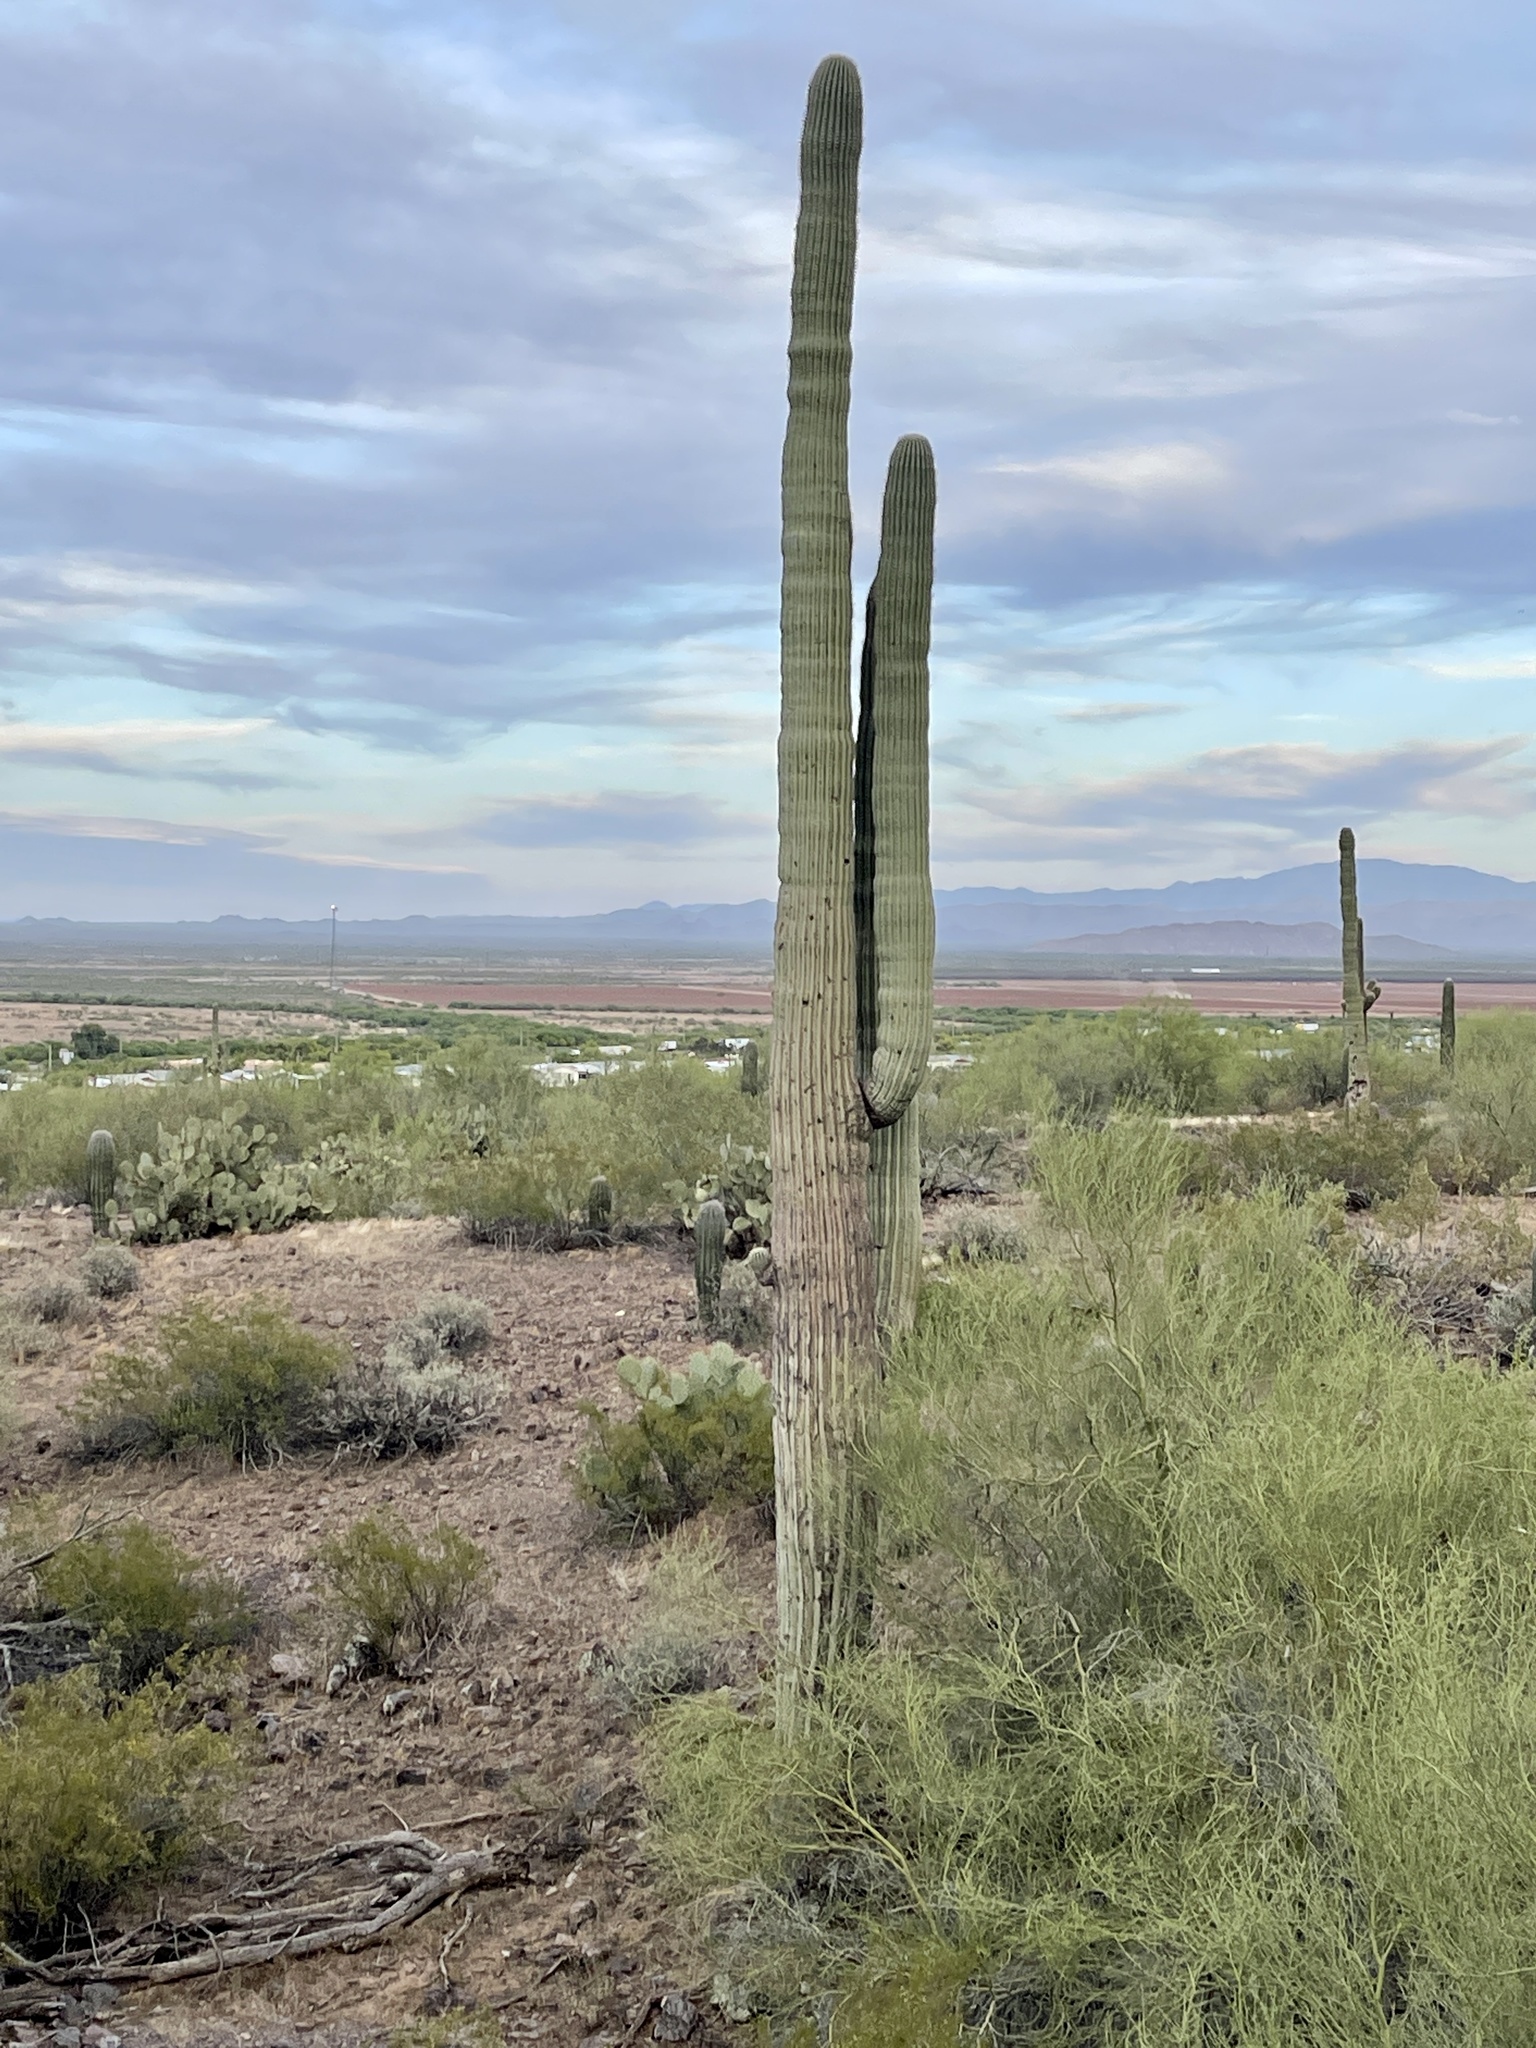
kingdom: Plantae
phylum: Tracheophyta
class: Magnoliopsida
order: Caryophyllales
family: Cactaceae
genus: Carnegiea
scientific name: Carnegiea gigantea
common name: Saguaro
